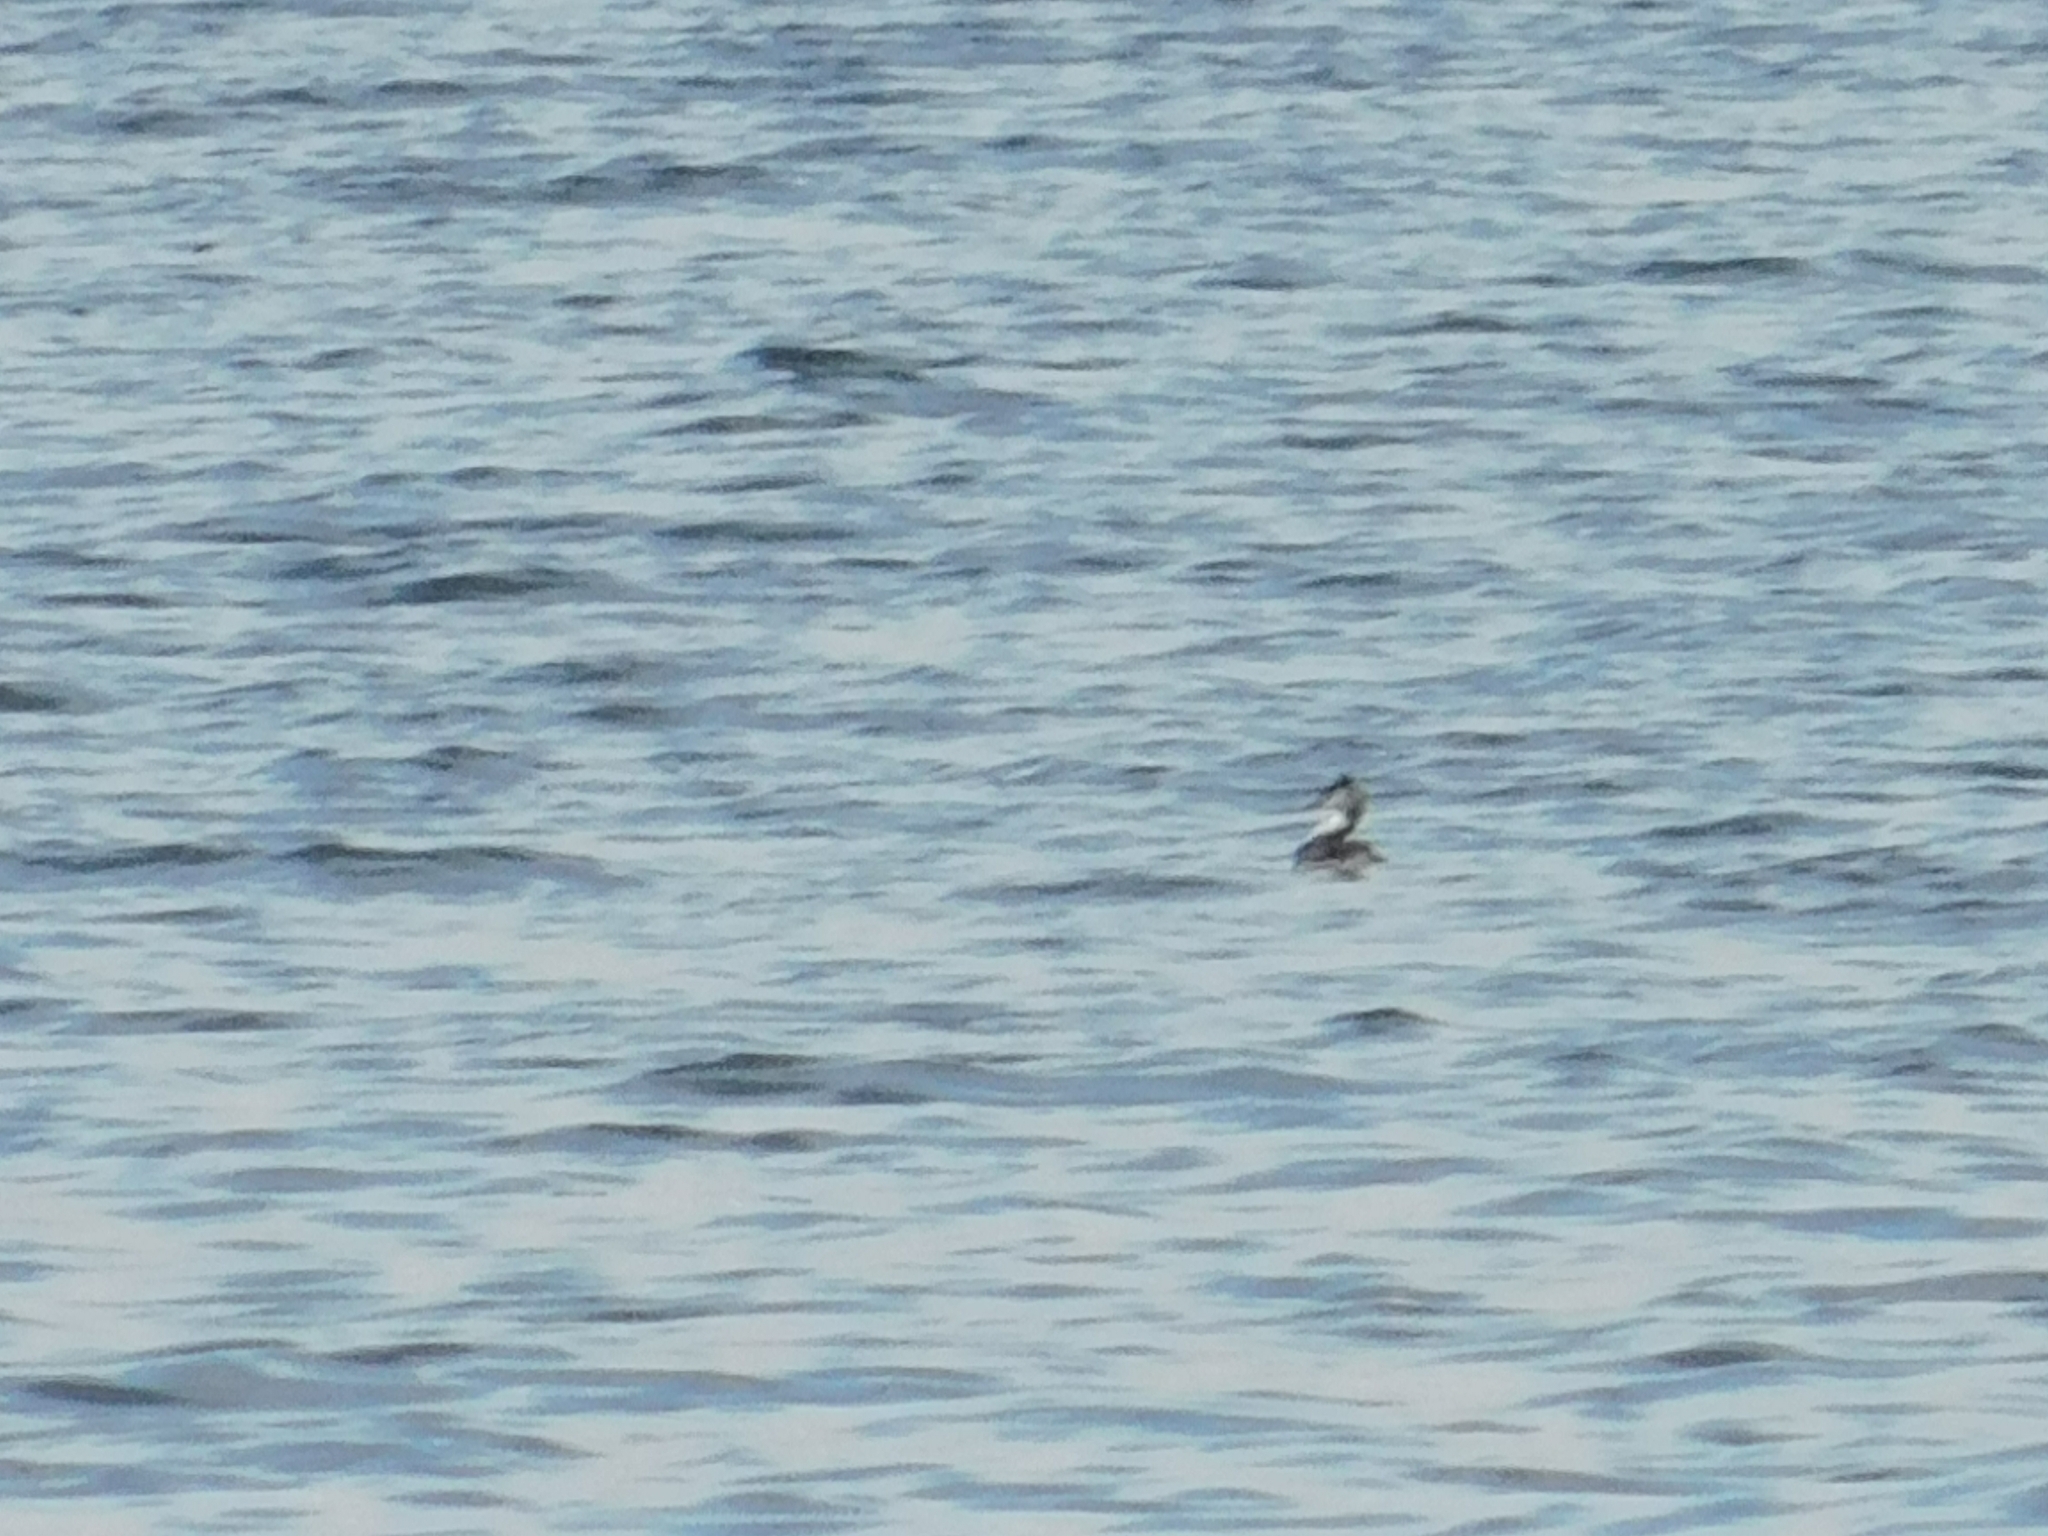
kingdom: Animalia
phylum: Chordata
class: Aves
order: Podicipediformes
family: Podicipedidae
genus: Podiceps
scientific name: Podiceps cristatus
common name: Great crested grebe
